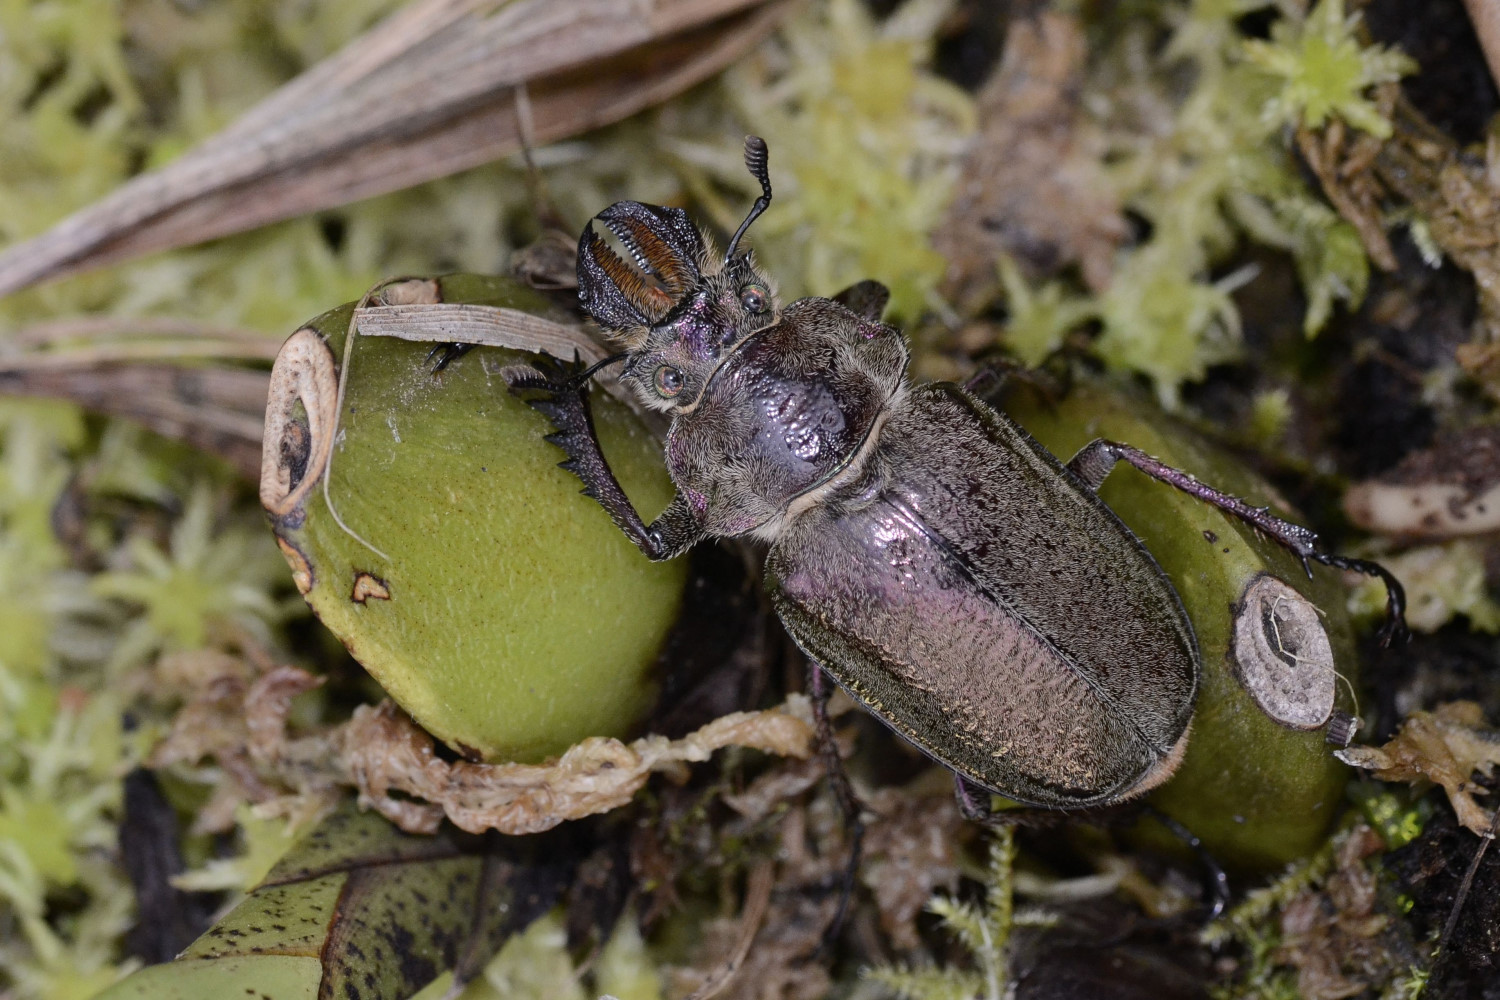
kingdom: Animalia
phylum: Arthropoda
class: Insecta
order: Coleoptera
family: Lucanidae
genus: Sphaenognathus
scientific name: Sphaenognathus giganteus
